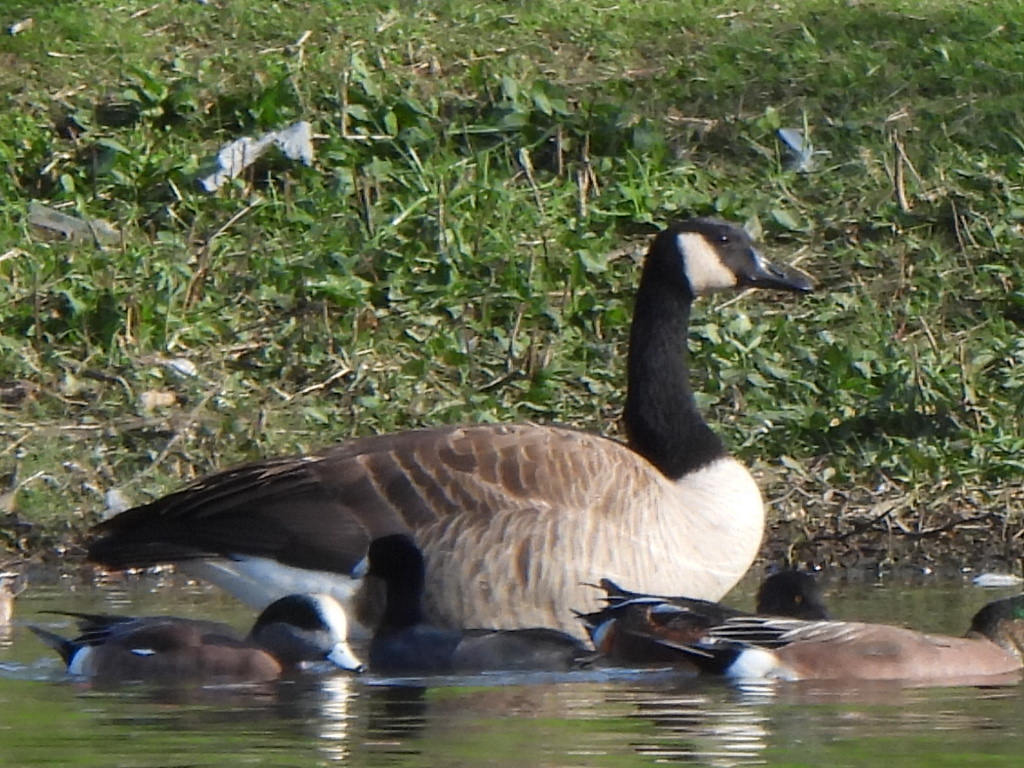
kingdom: Animalia
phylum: Chordata
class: Aves
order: Anseriformes
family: Anatidae
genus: Branta
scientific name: Branta canadensis
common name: Canada goose
